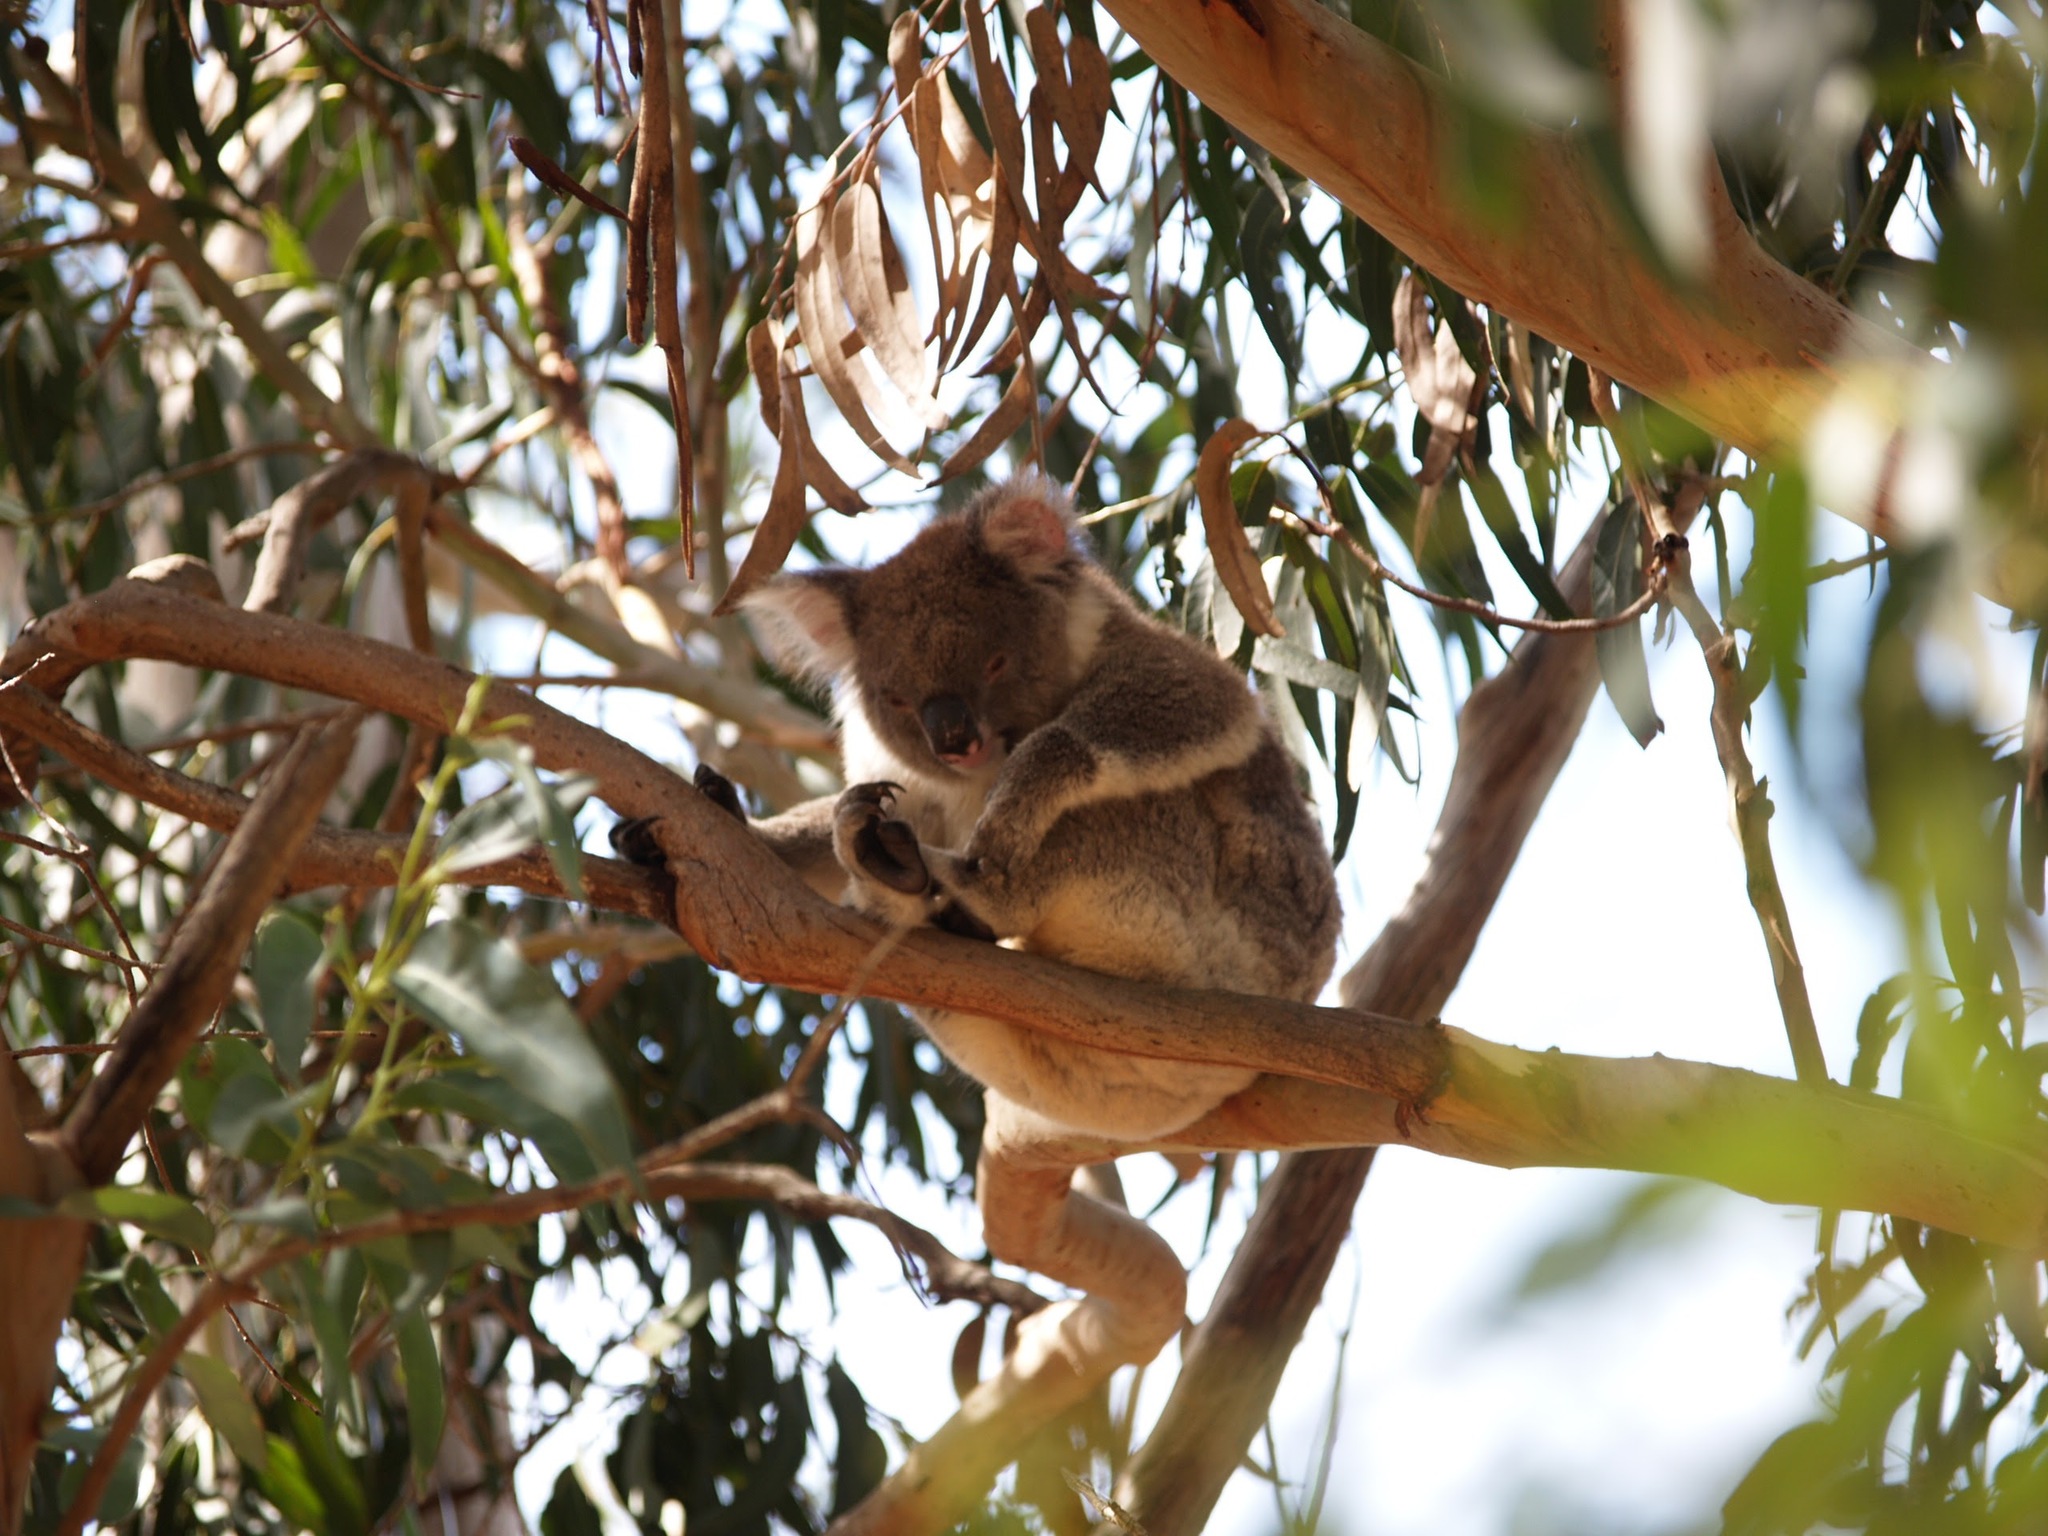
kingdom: Animalia
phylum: Chordata
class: Mammalia
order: Diprotodontia
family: Phascolarctidae
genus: Phascolarctos
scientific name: Phascolarctos cinereus
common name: Koala
